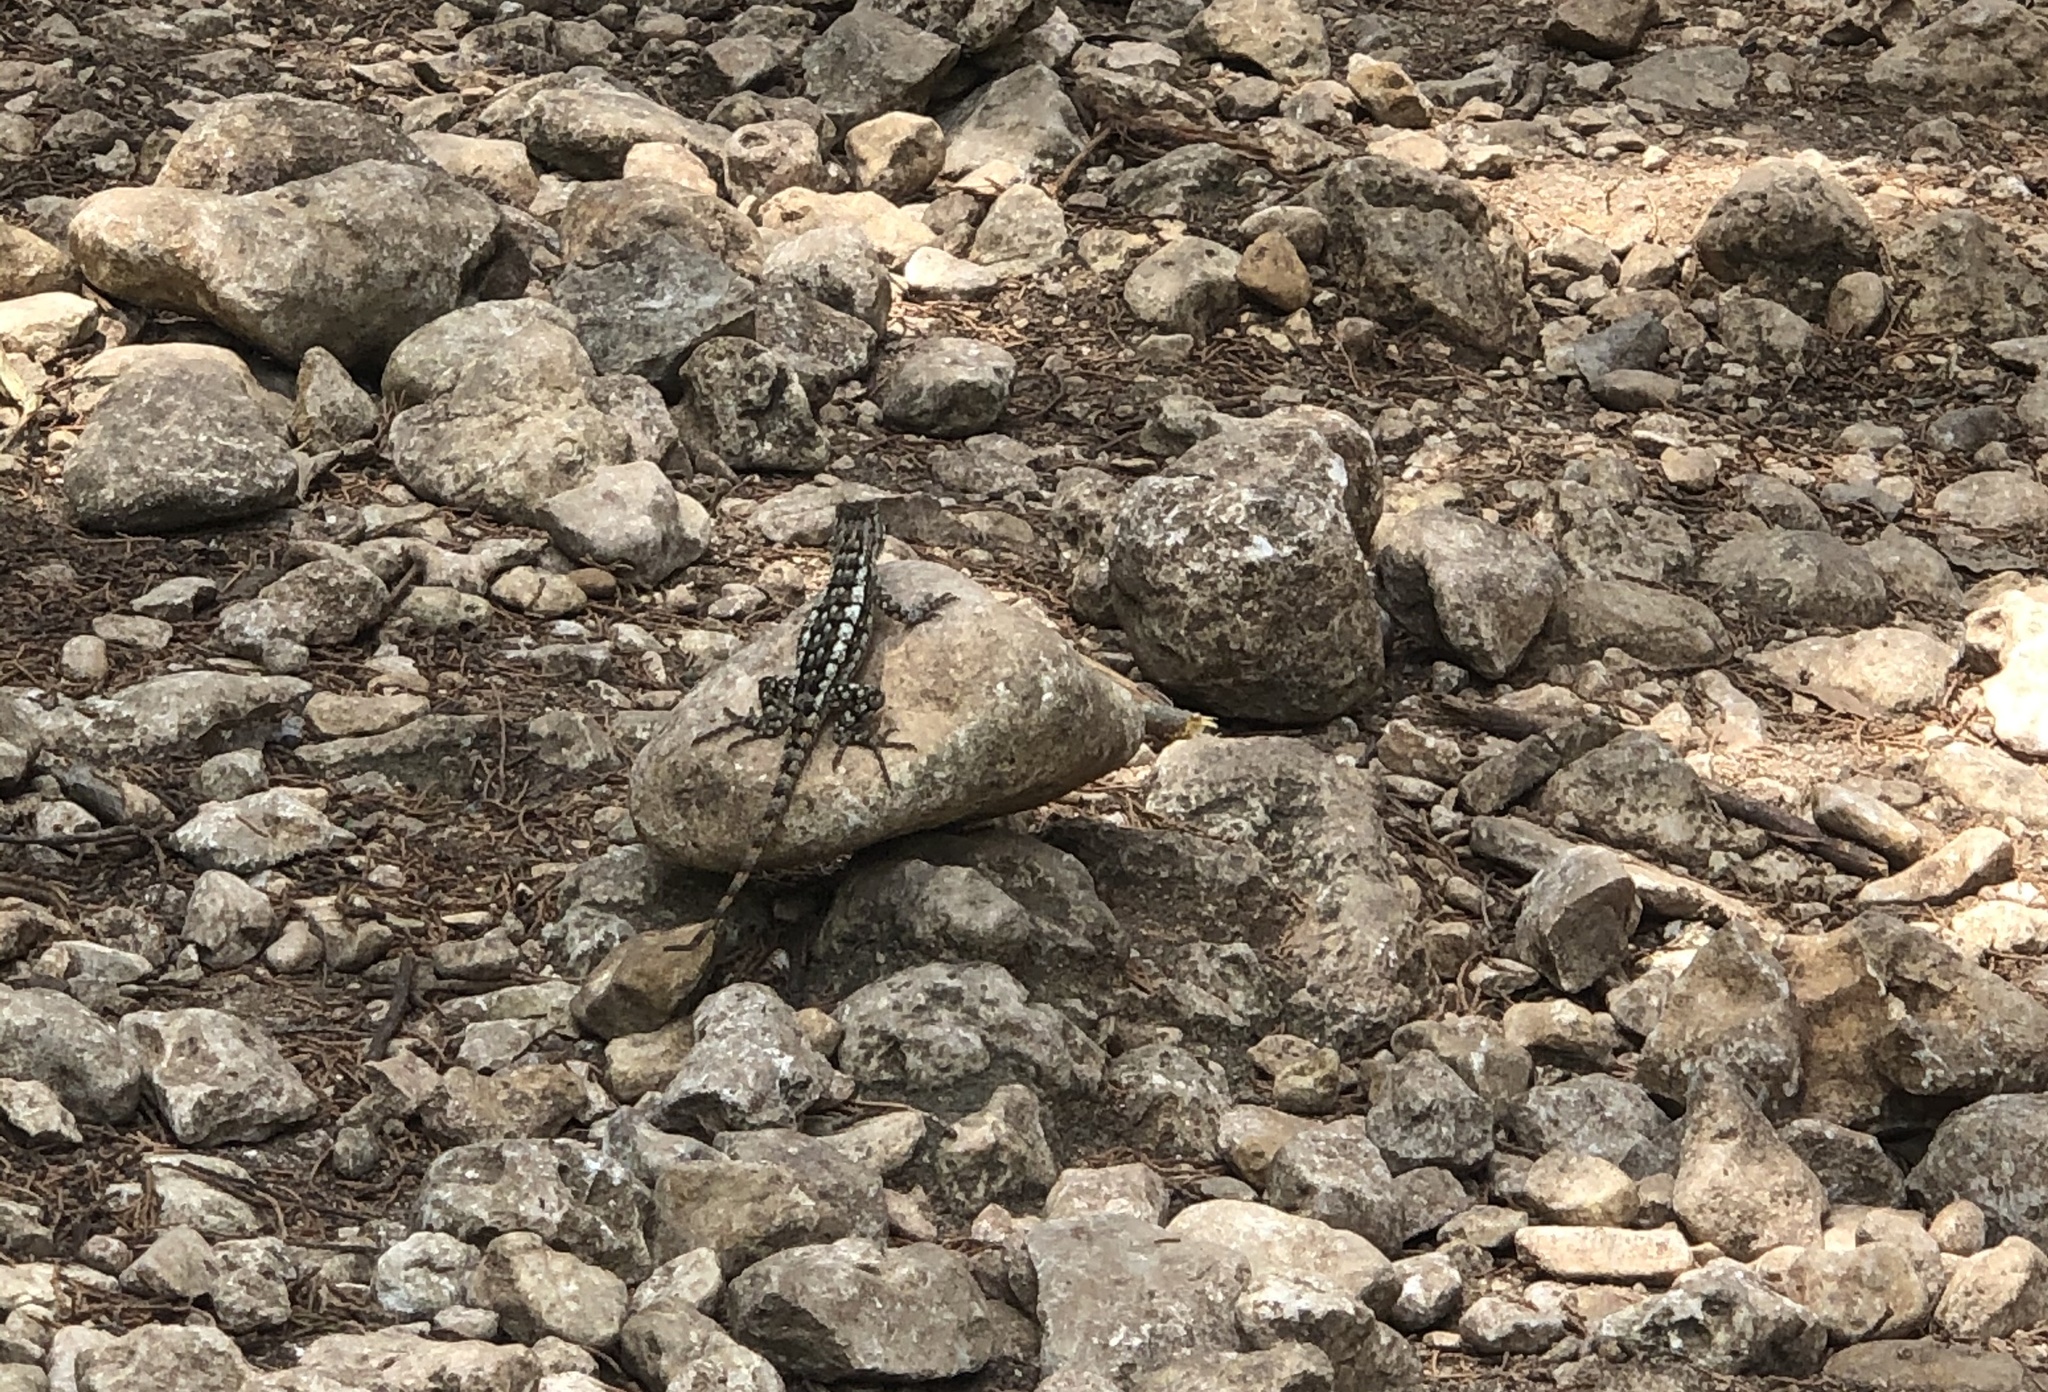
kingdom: Animalia
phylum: Chordata
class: Squamata
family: Phrynosomatidae
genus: Sceloporus
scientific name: Sceloporus olivaceus
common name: Texas spiny lizard
